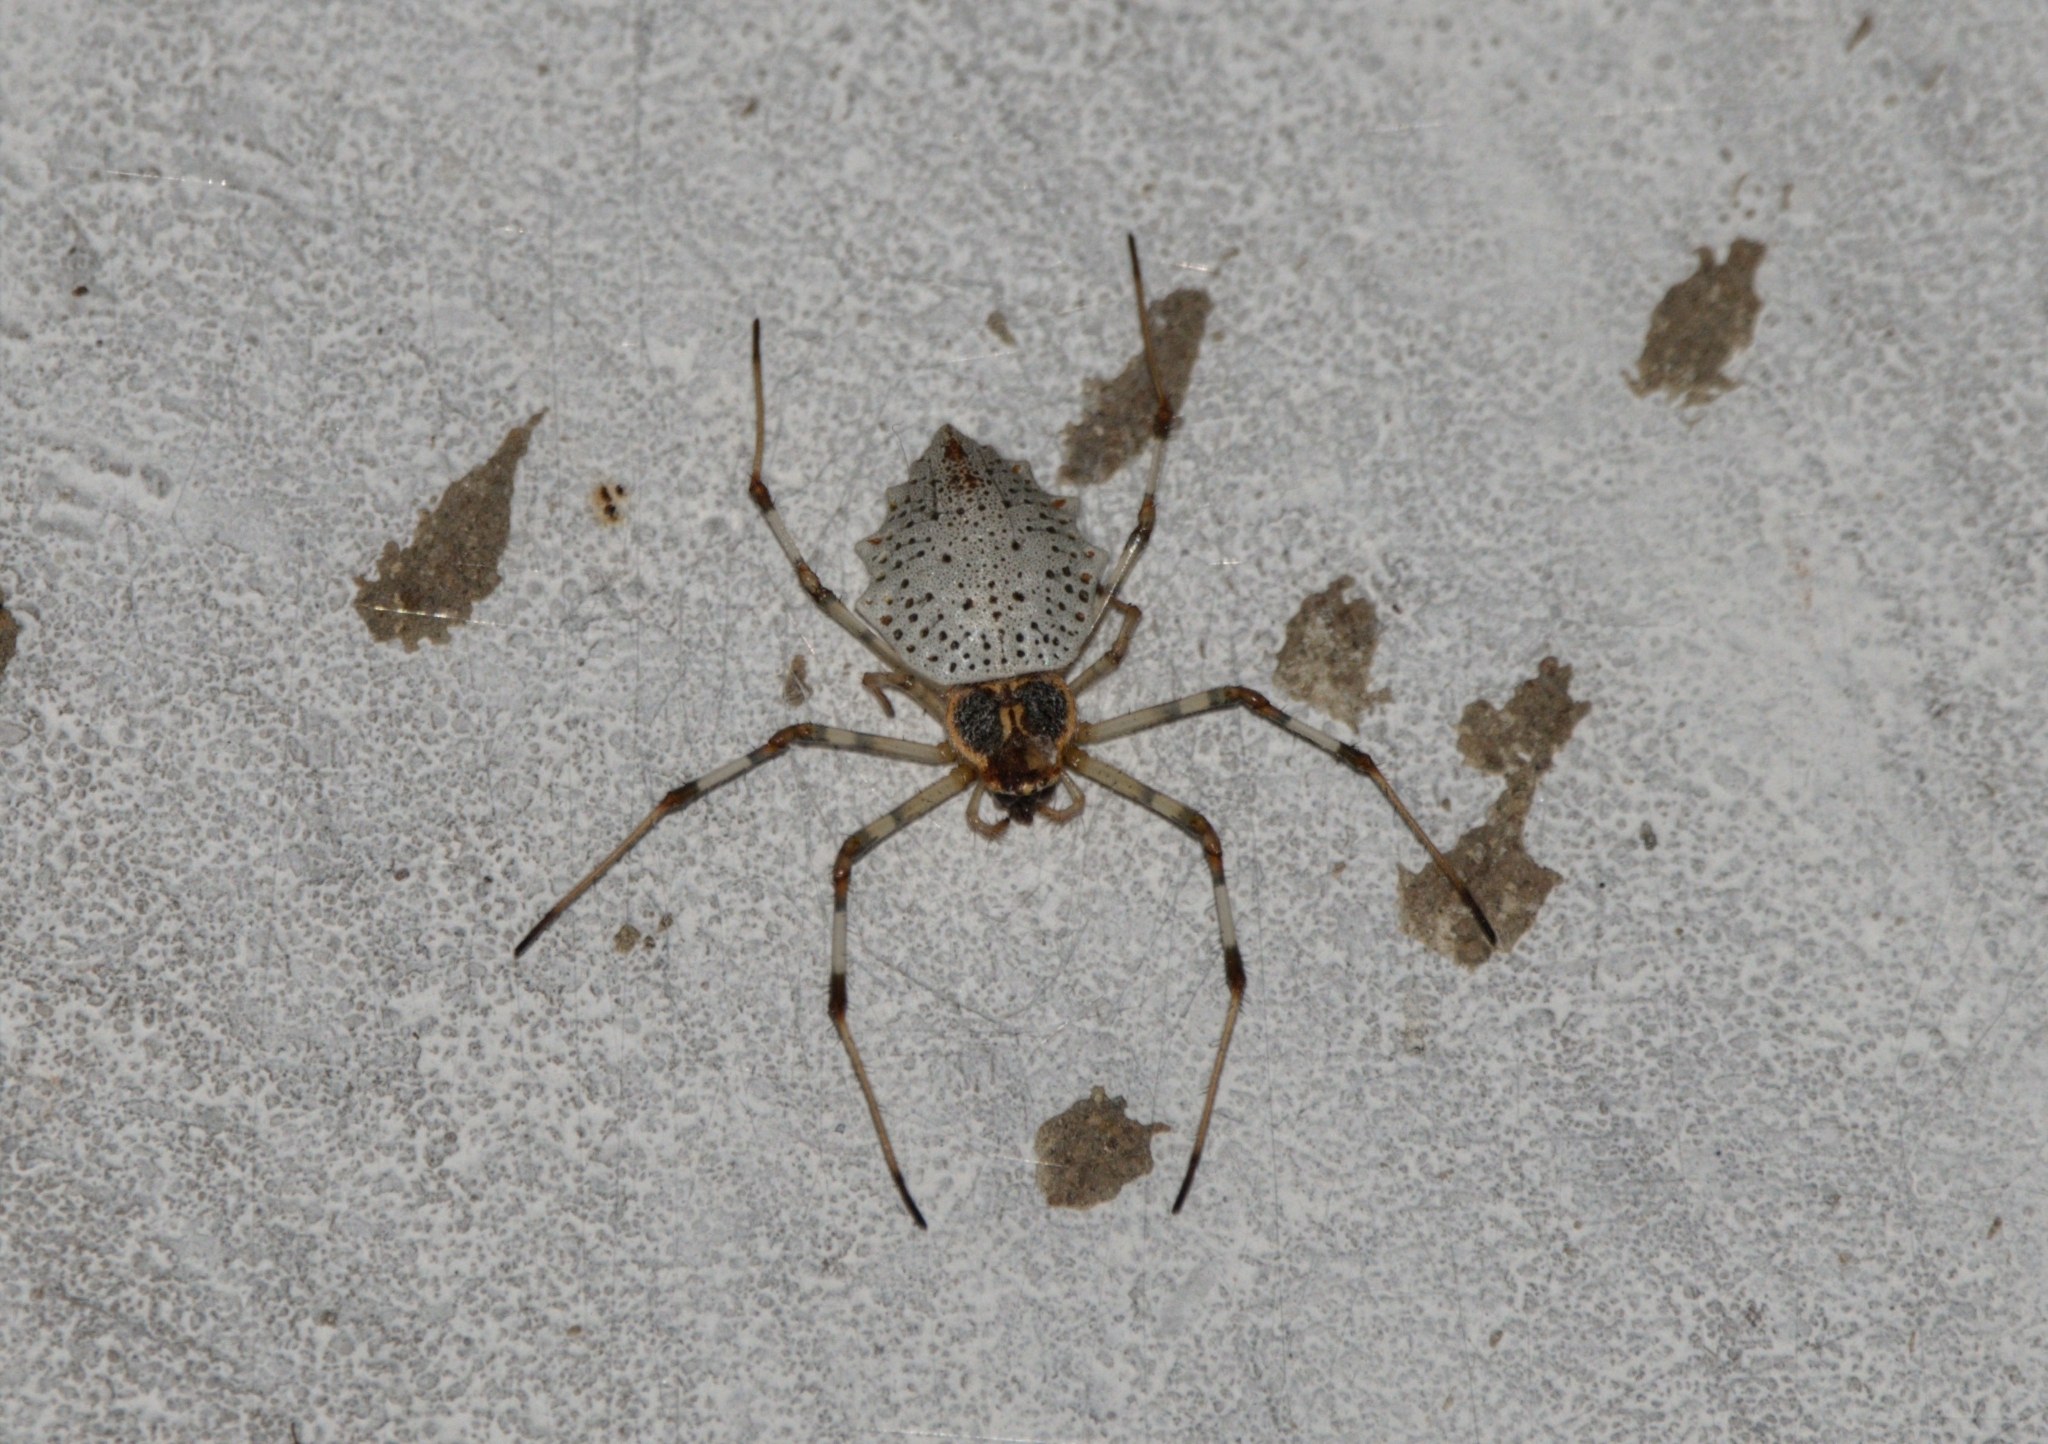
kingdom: Animalia
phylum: Arthropoda
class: Arachnida
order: Araneae
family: Araneidae
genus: Herennia
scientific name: Herennia multipuncta
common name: Spotted coin spider
